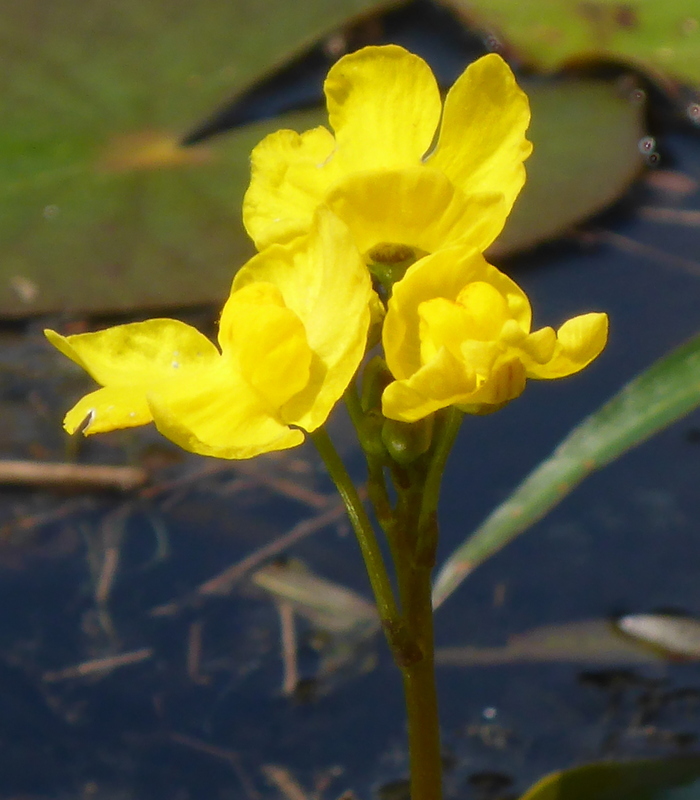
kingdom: Plantae
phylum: Tracheophyta
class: Magnoliopsida
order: Lamiales
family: Lentibulariaceae
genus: Utricularia
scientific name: Utricularia inflata
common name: Floating bladderwort
